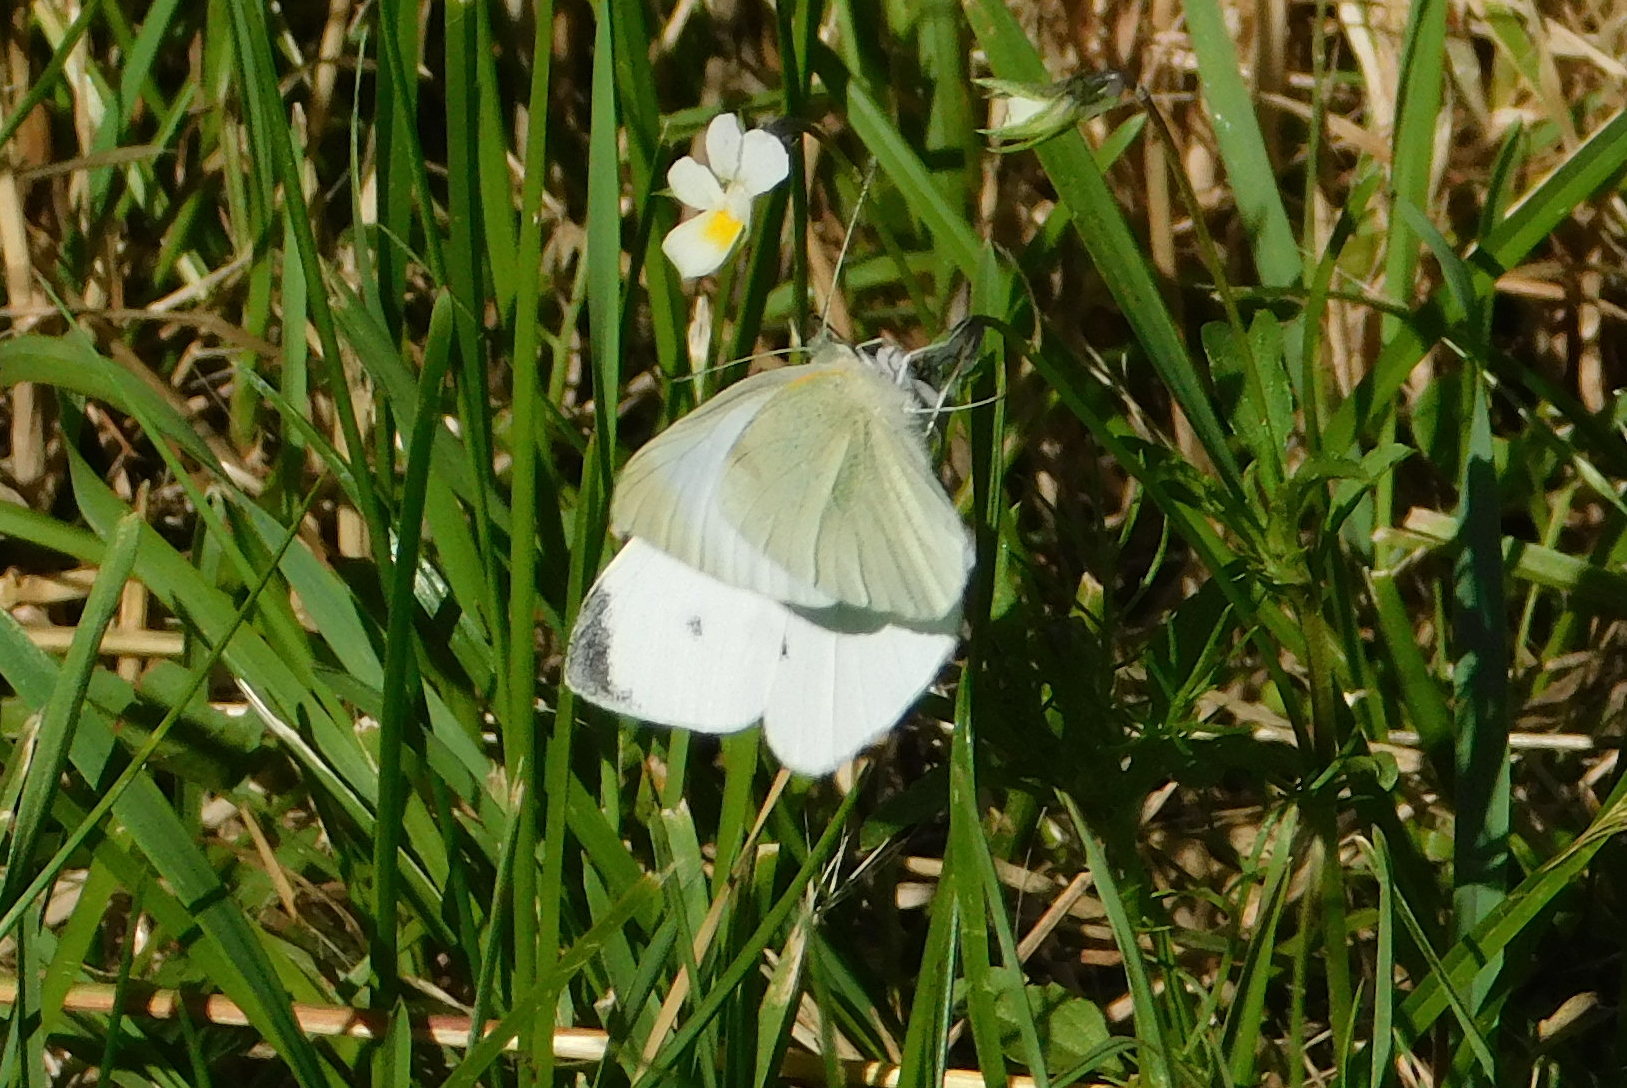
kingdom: Animalia
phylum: Arthropoda
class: Insecta
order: Lepidoptera
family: Pieridae
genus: Pieris
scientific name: Pieris rapae
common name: Small white
